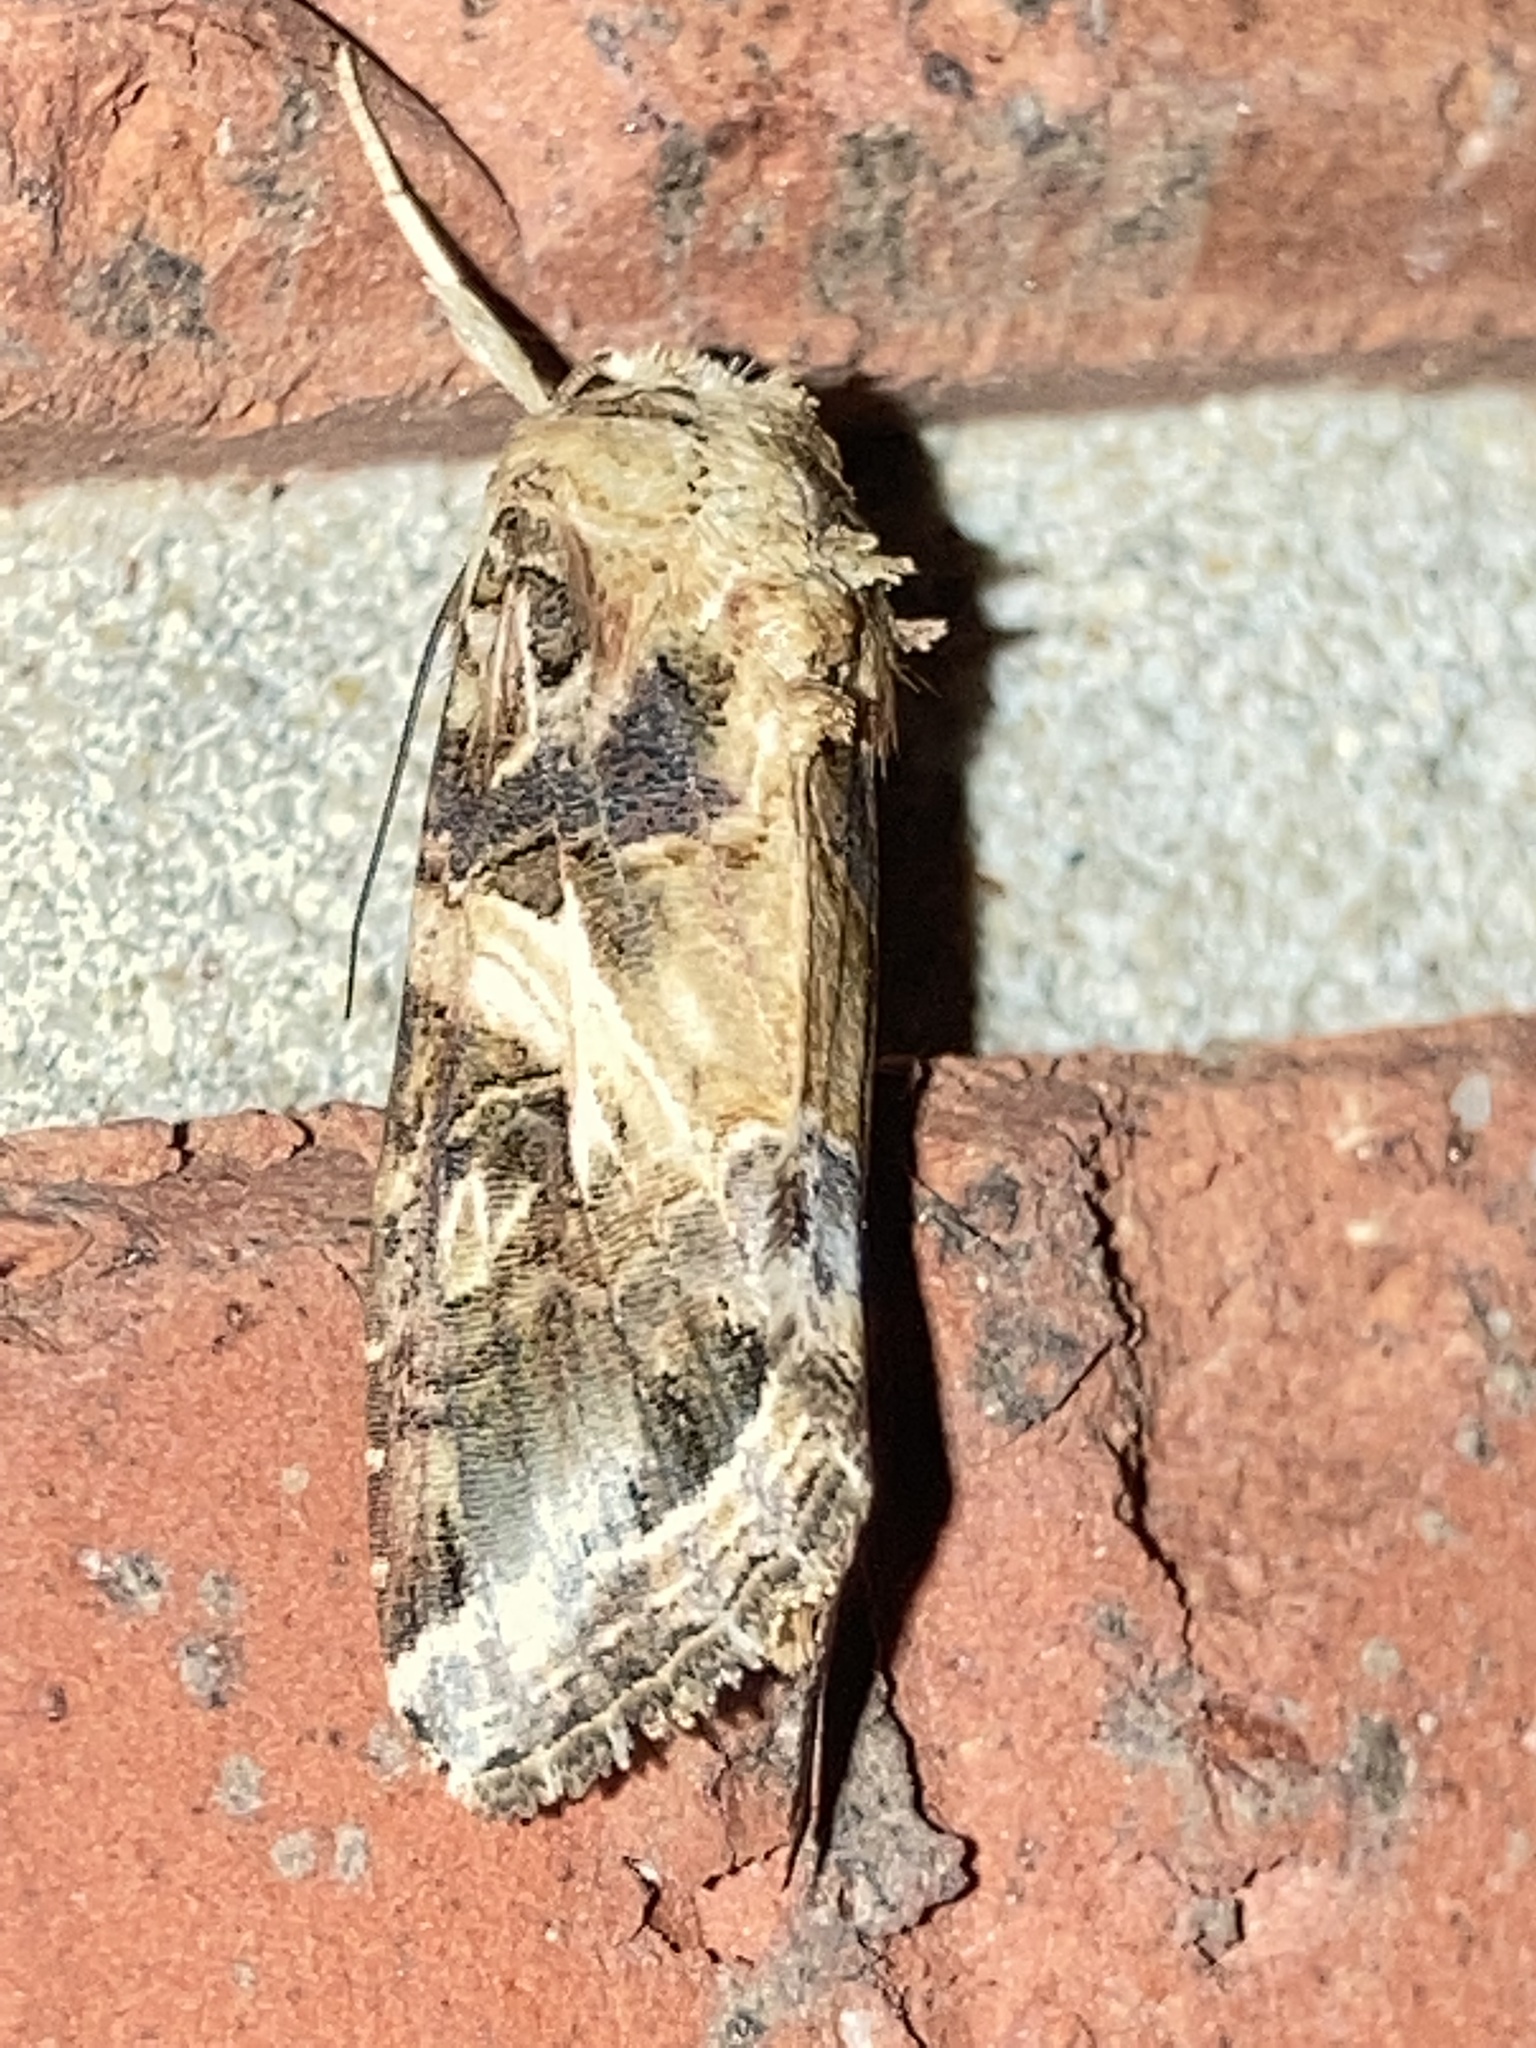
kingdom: Animalia
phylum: Arthropoda
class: Insecta
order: Lepidoptera
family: Noctuidae
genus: Spodoptera
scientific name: Spodoptera ornithogalli
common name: Yellow-striped armyworm
